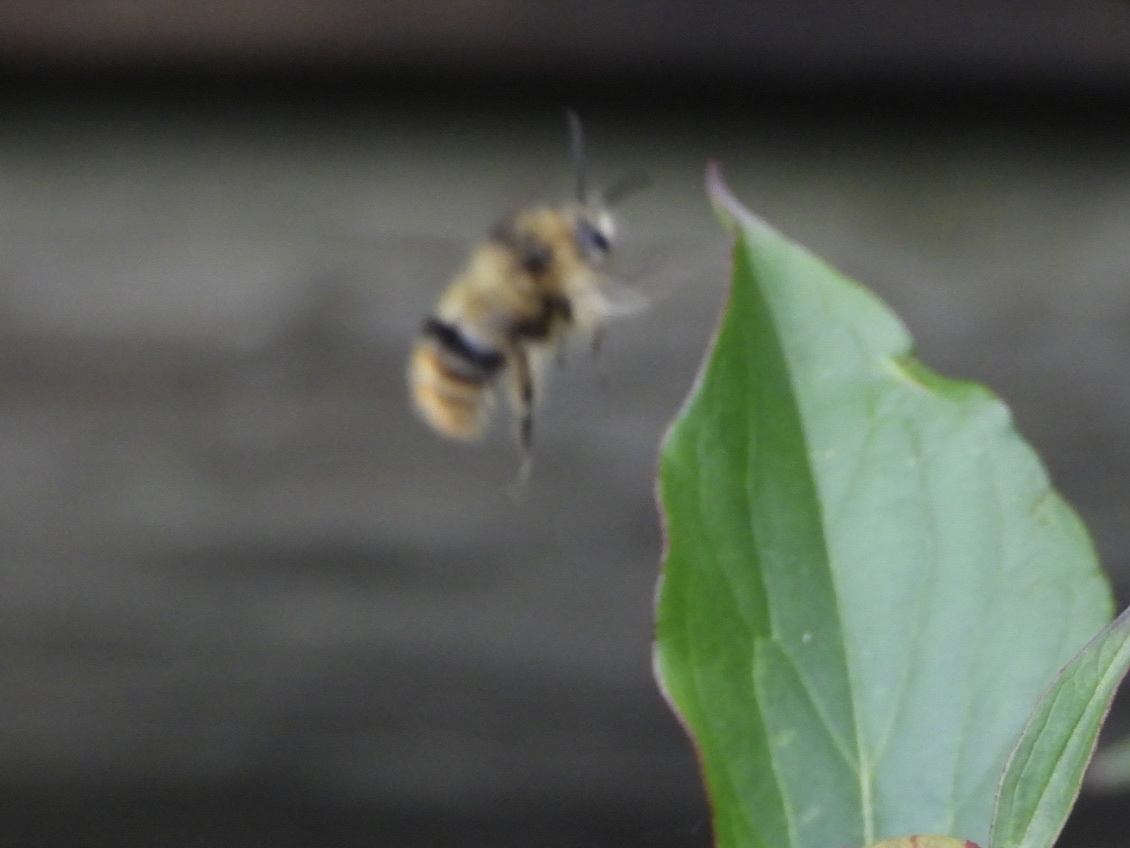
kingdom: Animalia
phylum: Arthropoda
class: Insecta
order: Hymenoptera
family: Apidae
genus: Bombus
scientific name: Bombus mixtus
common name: Fuzzy-horned bumble bee
